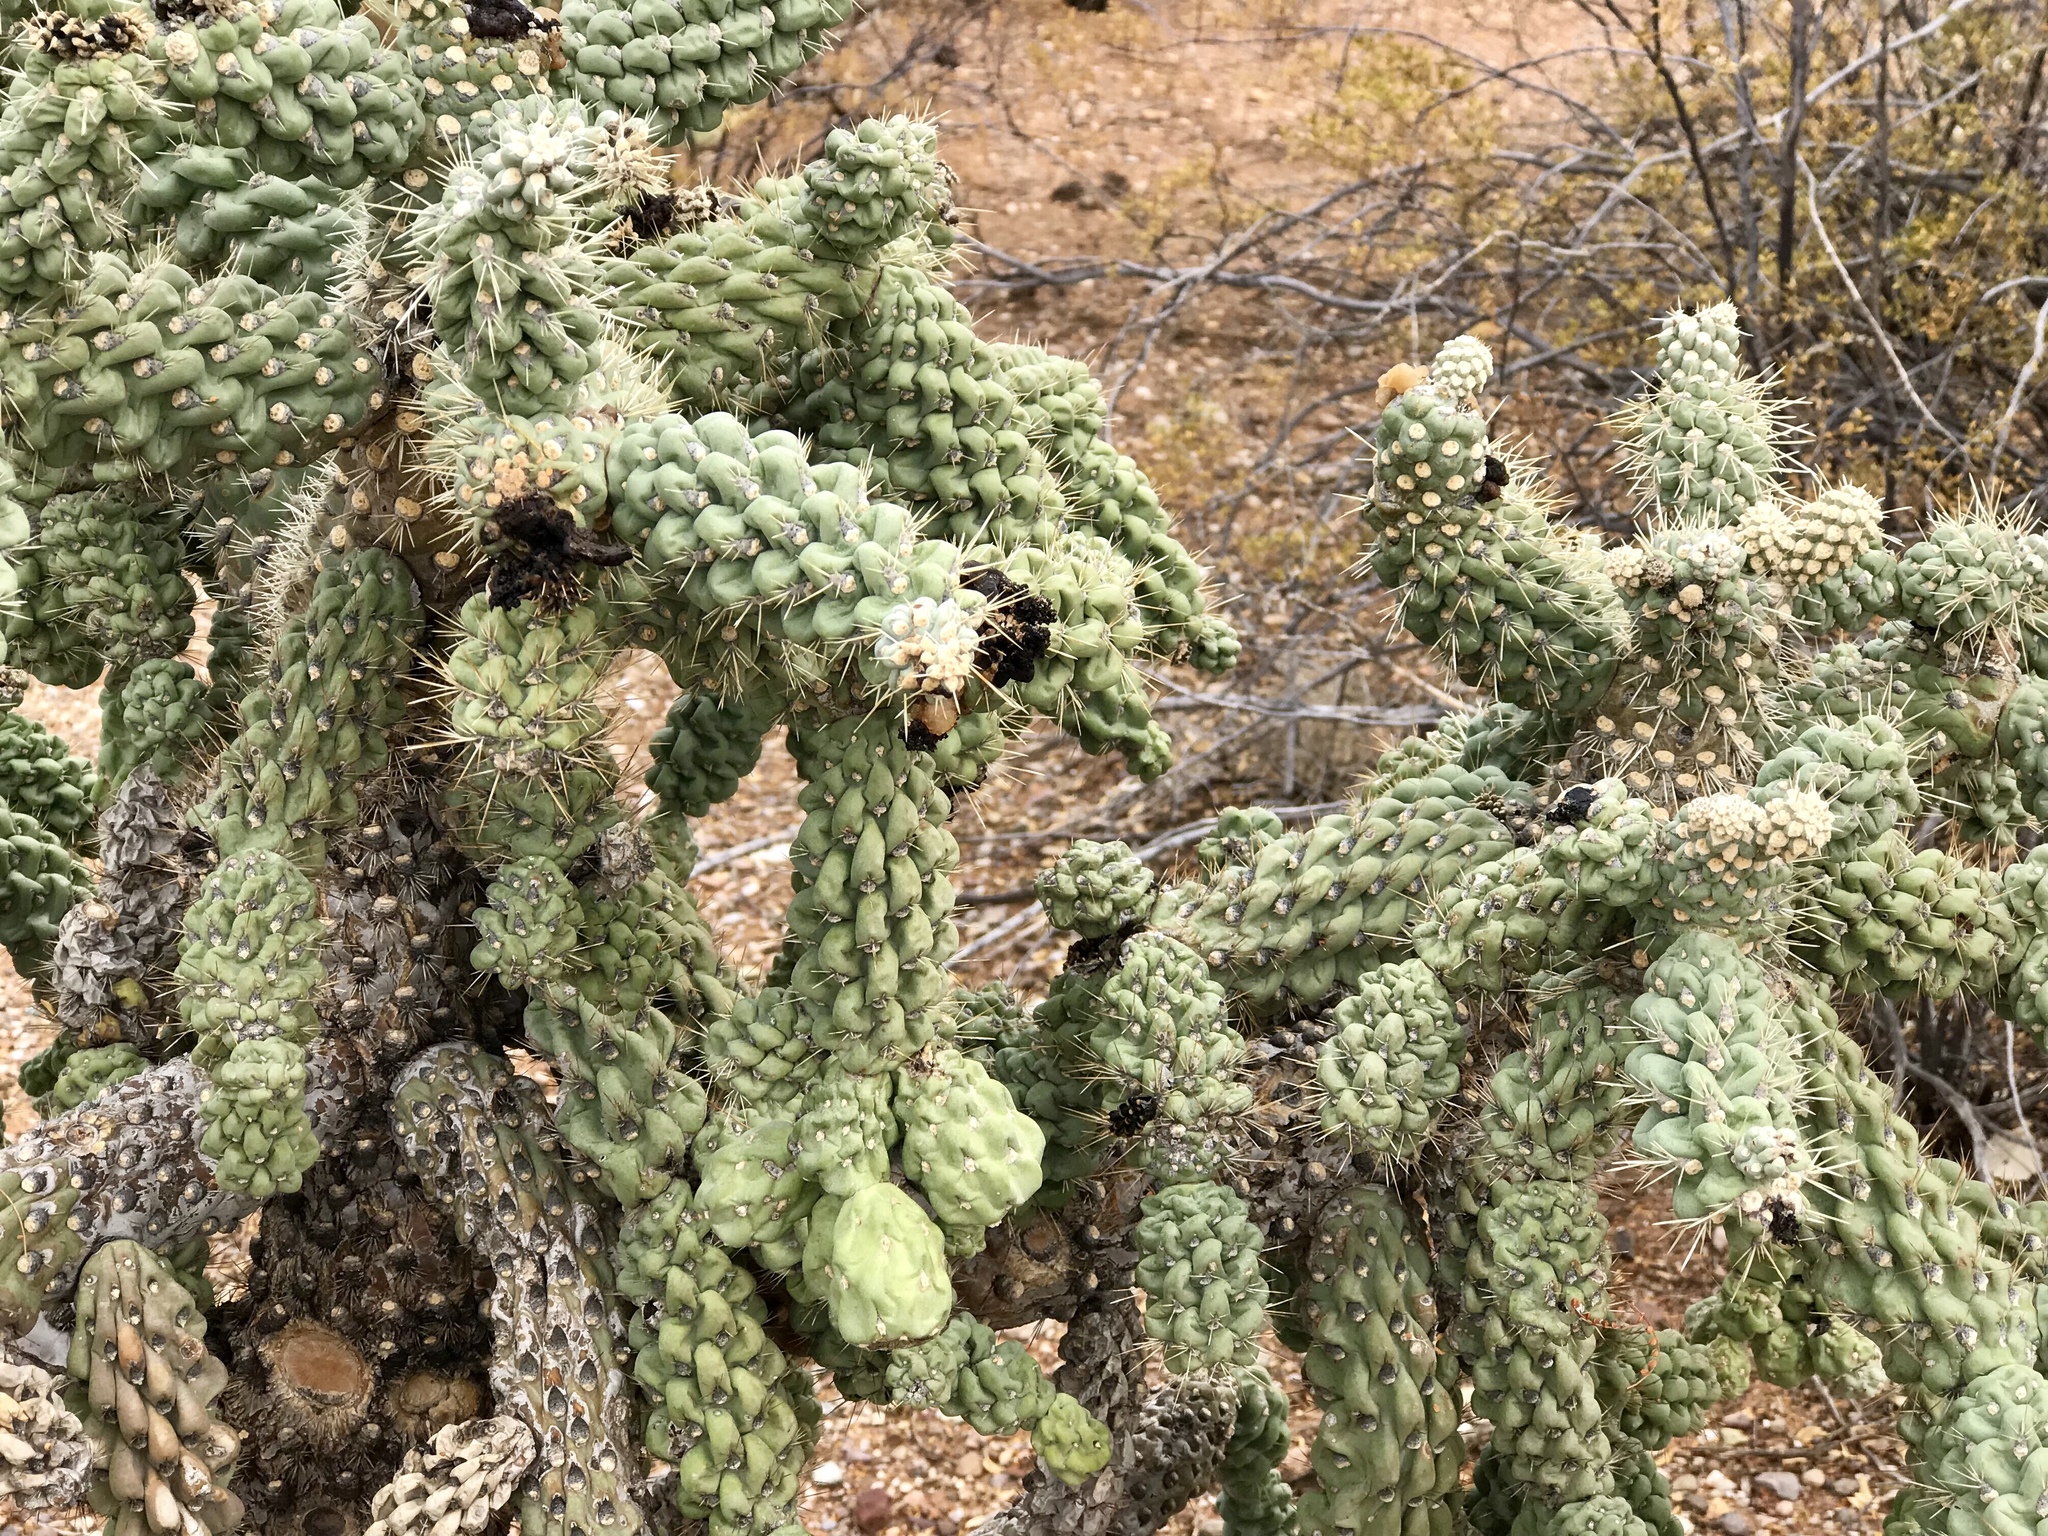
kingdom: Plantae
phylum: Tracheophyta
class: Magnoliopsida
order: Caryophyllales
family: Cactaceae
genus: Cylindropuntia
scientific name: Cylindropuntia fulgida
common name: Jumping cholla
